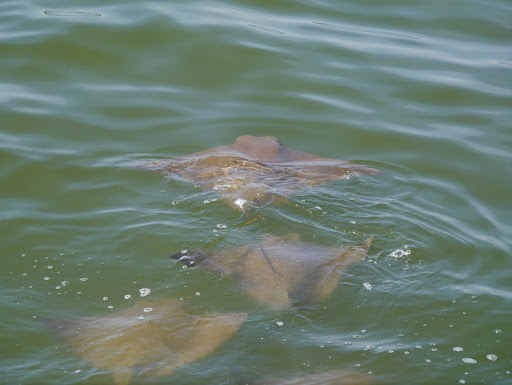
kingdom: Animalia
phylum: Chordata
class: Elasmobranchii
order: Myliobatiformes
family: Myliobatidae
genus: Rhinoptera
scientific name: Rhinoptera bonasus
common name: Cownose ray
